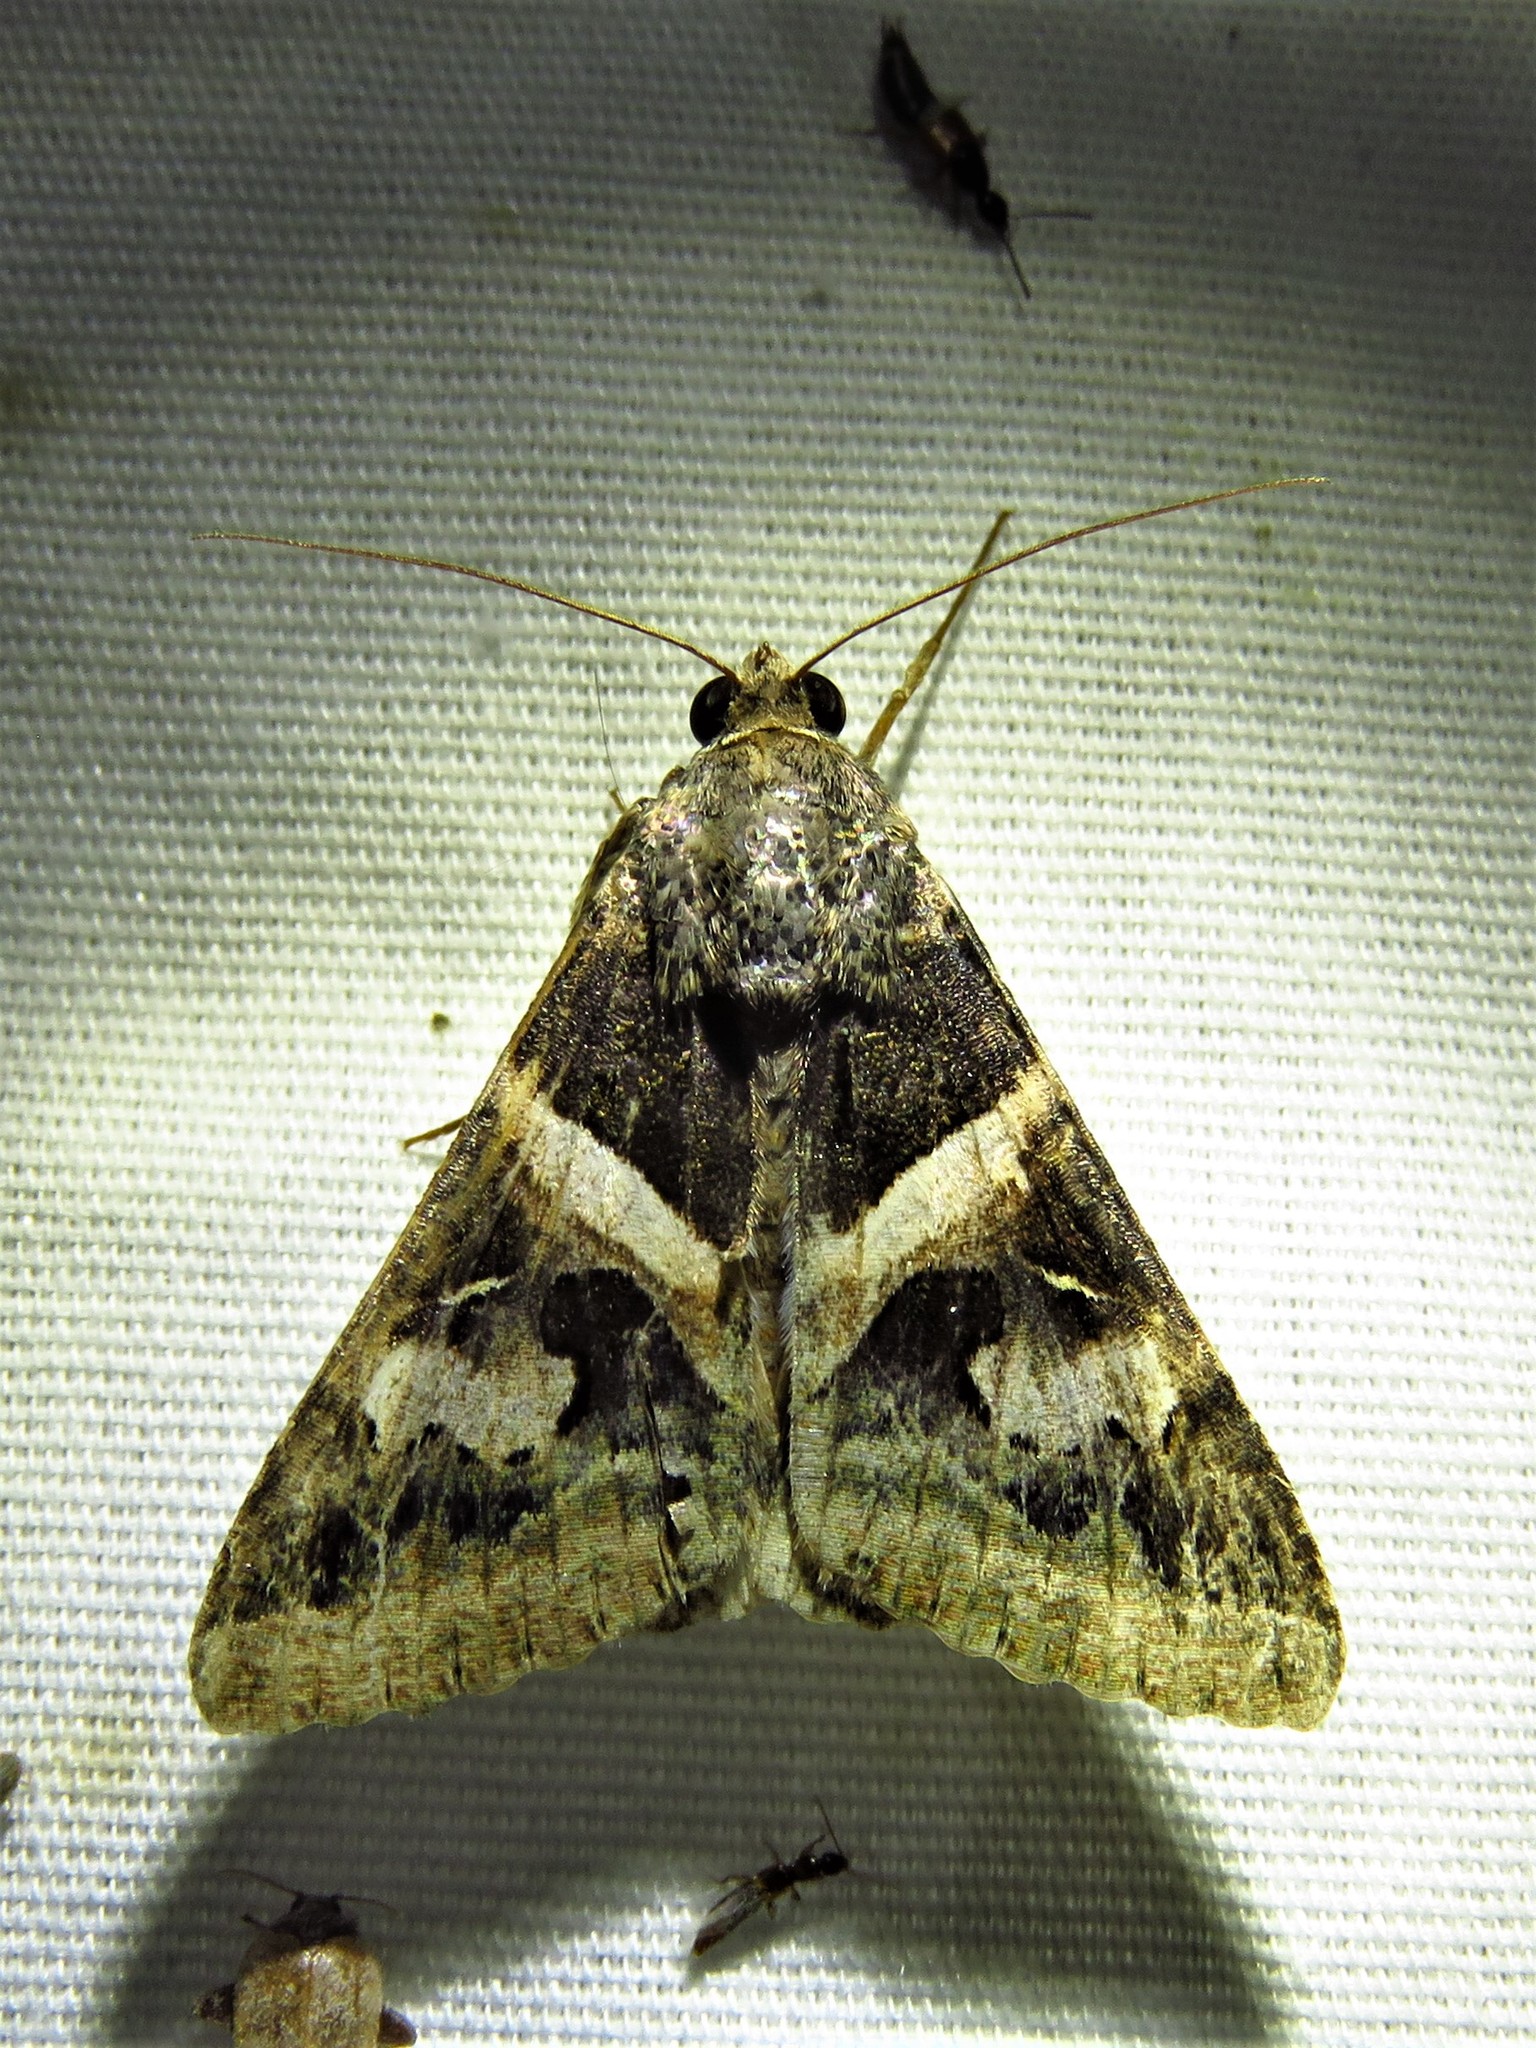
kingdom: Animalia
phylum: Arthropoda
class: Insecta
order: Lepidoptera
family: Erebidae
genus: Melipotis
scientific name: Melipotis indomita
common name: Moth
